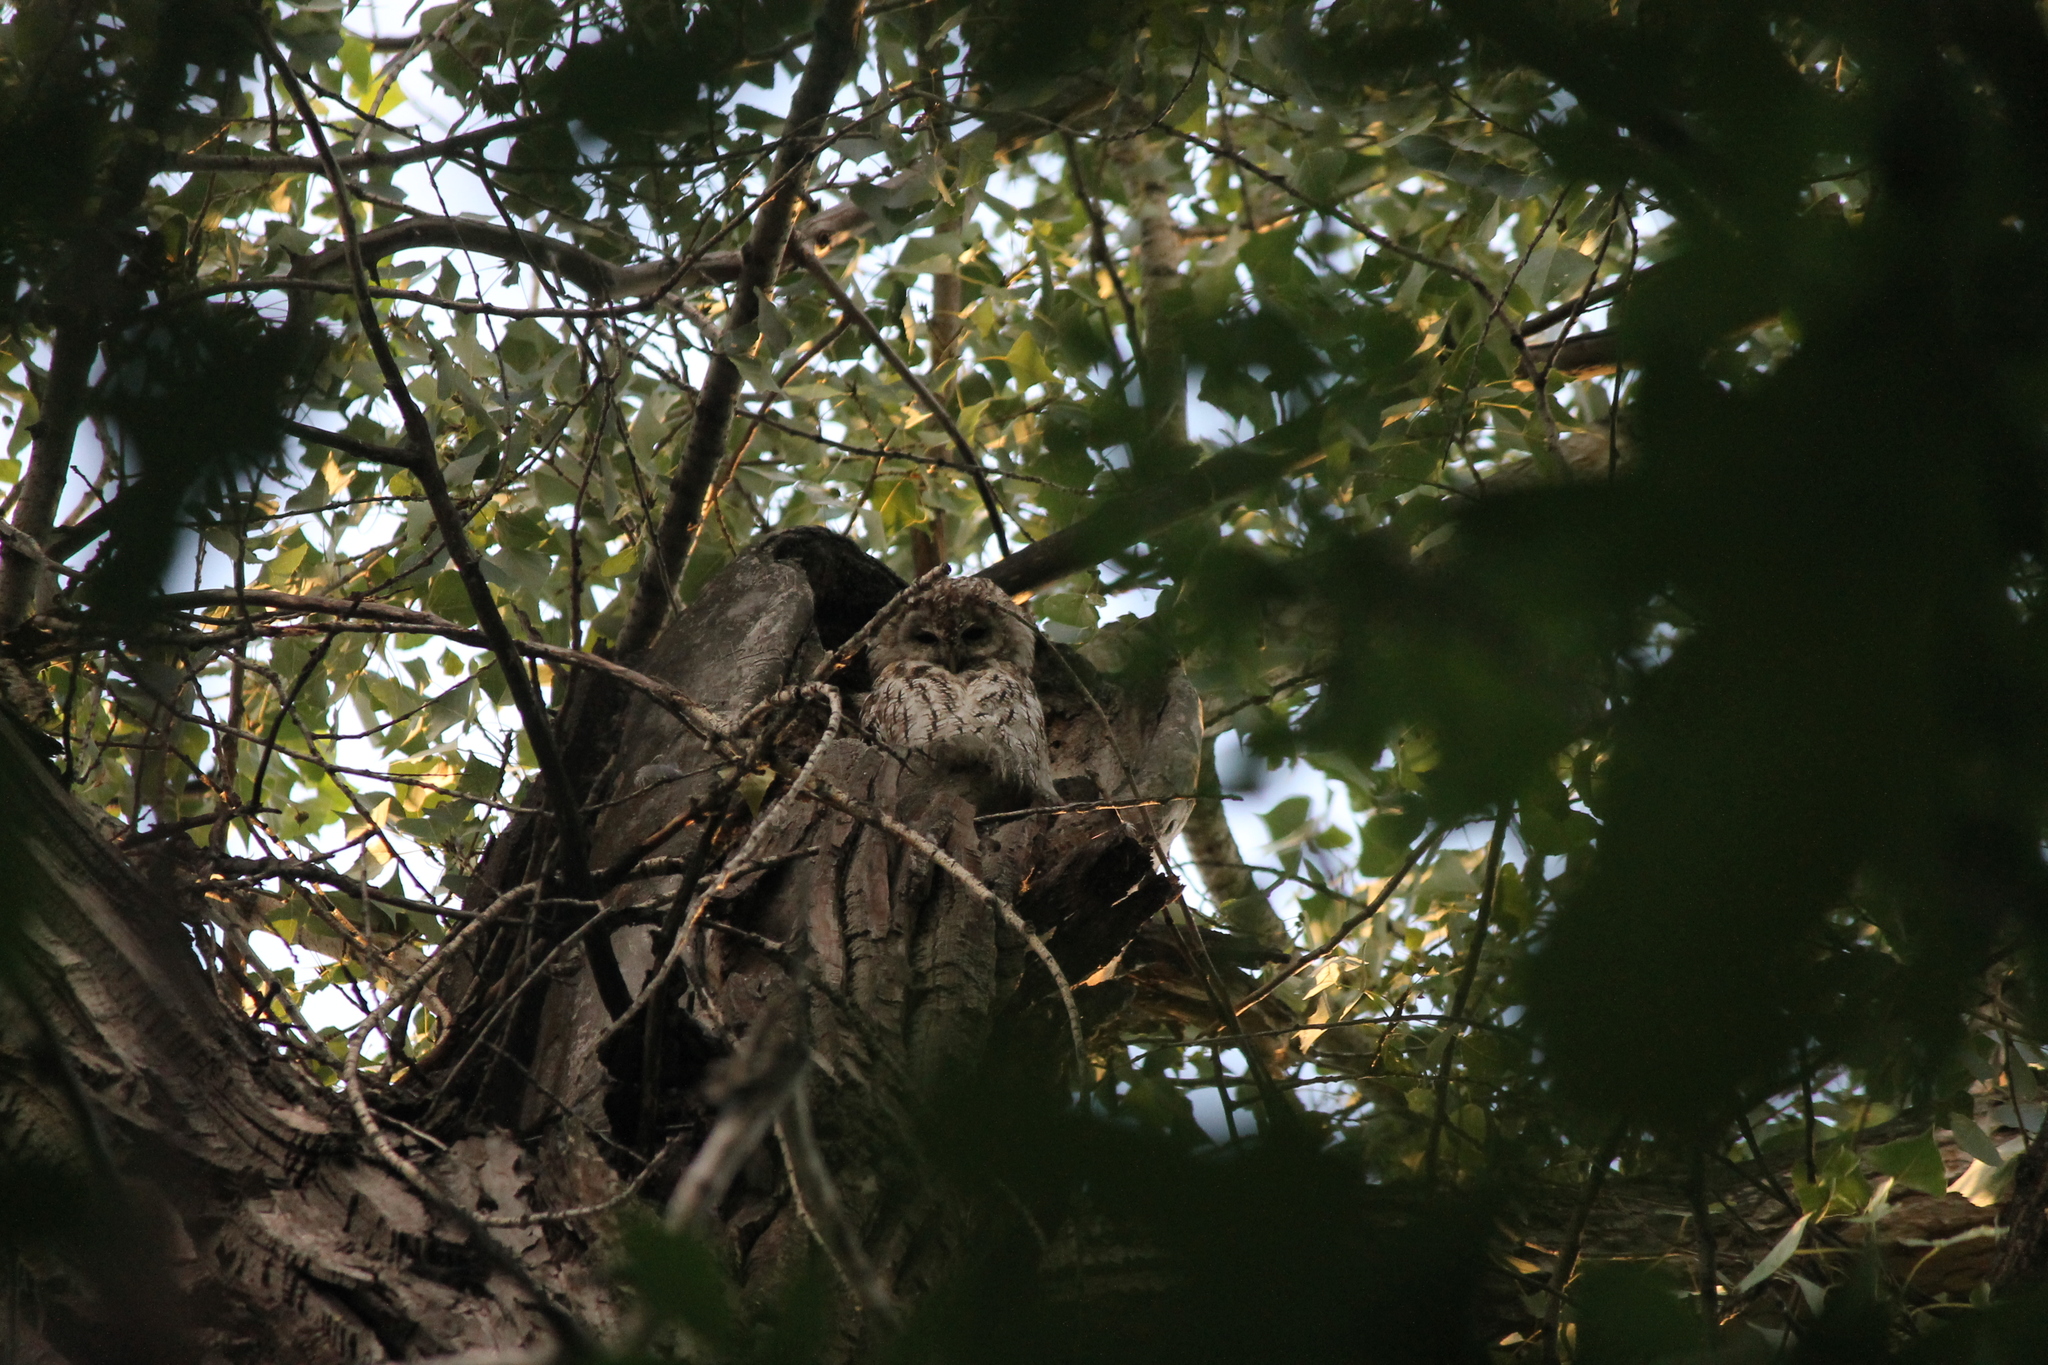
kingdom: Animalia
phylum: Chordata
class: Aves
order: Strigiformes
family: Strigidae
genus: Strix
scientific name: Strix aluco
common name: Tawny owl
